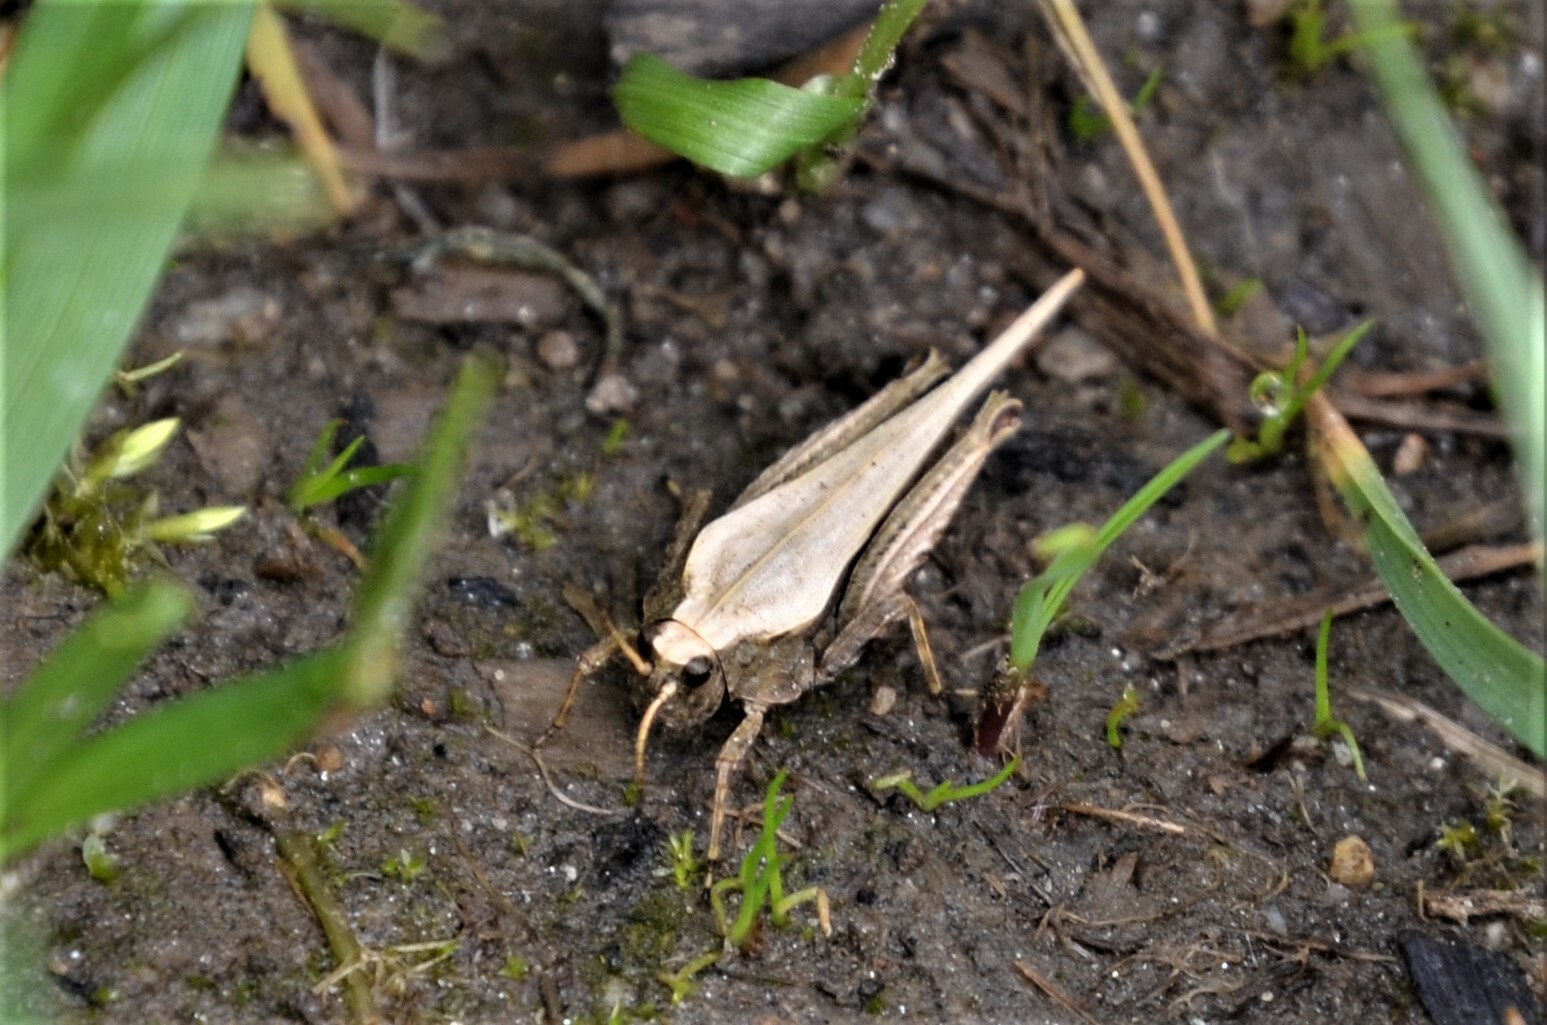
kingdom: Animalia
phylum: Arthropoda
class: Insecta
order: Orthoptera
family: Tetrigidae
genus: Tetrix
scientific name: Tetrix subulata
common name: Slender ground-hopper
